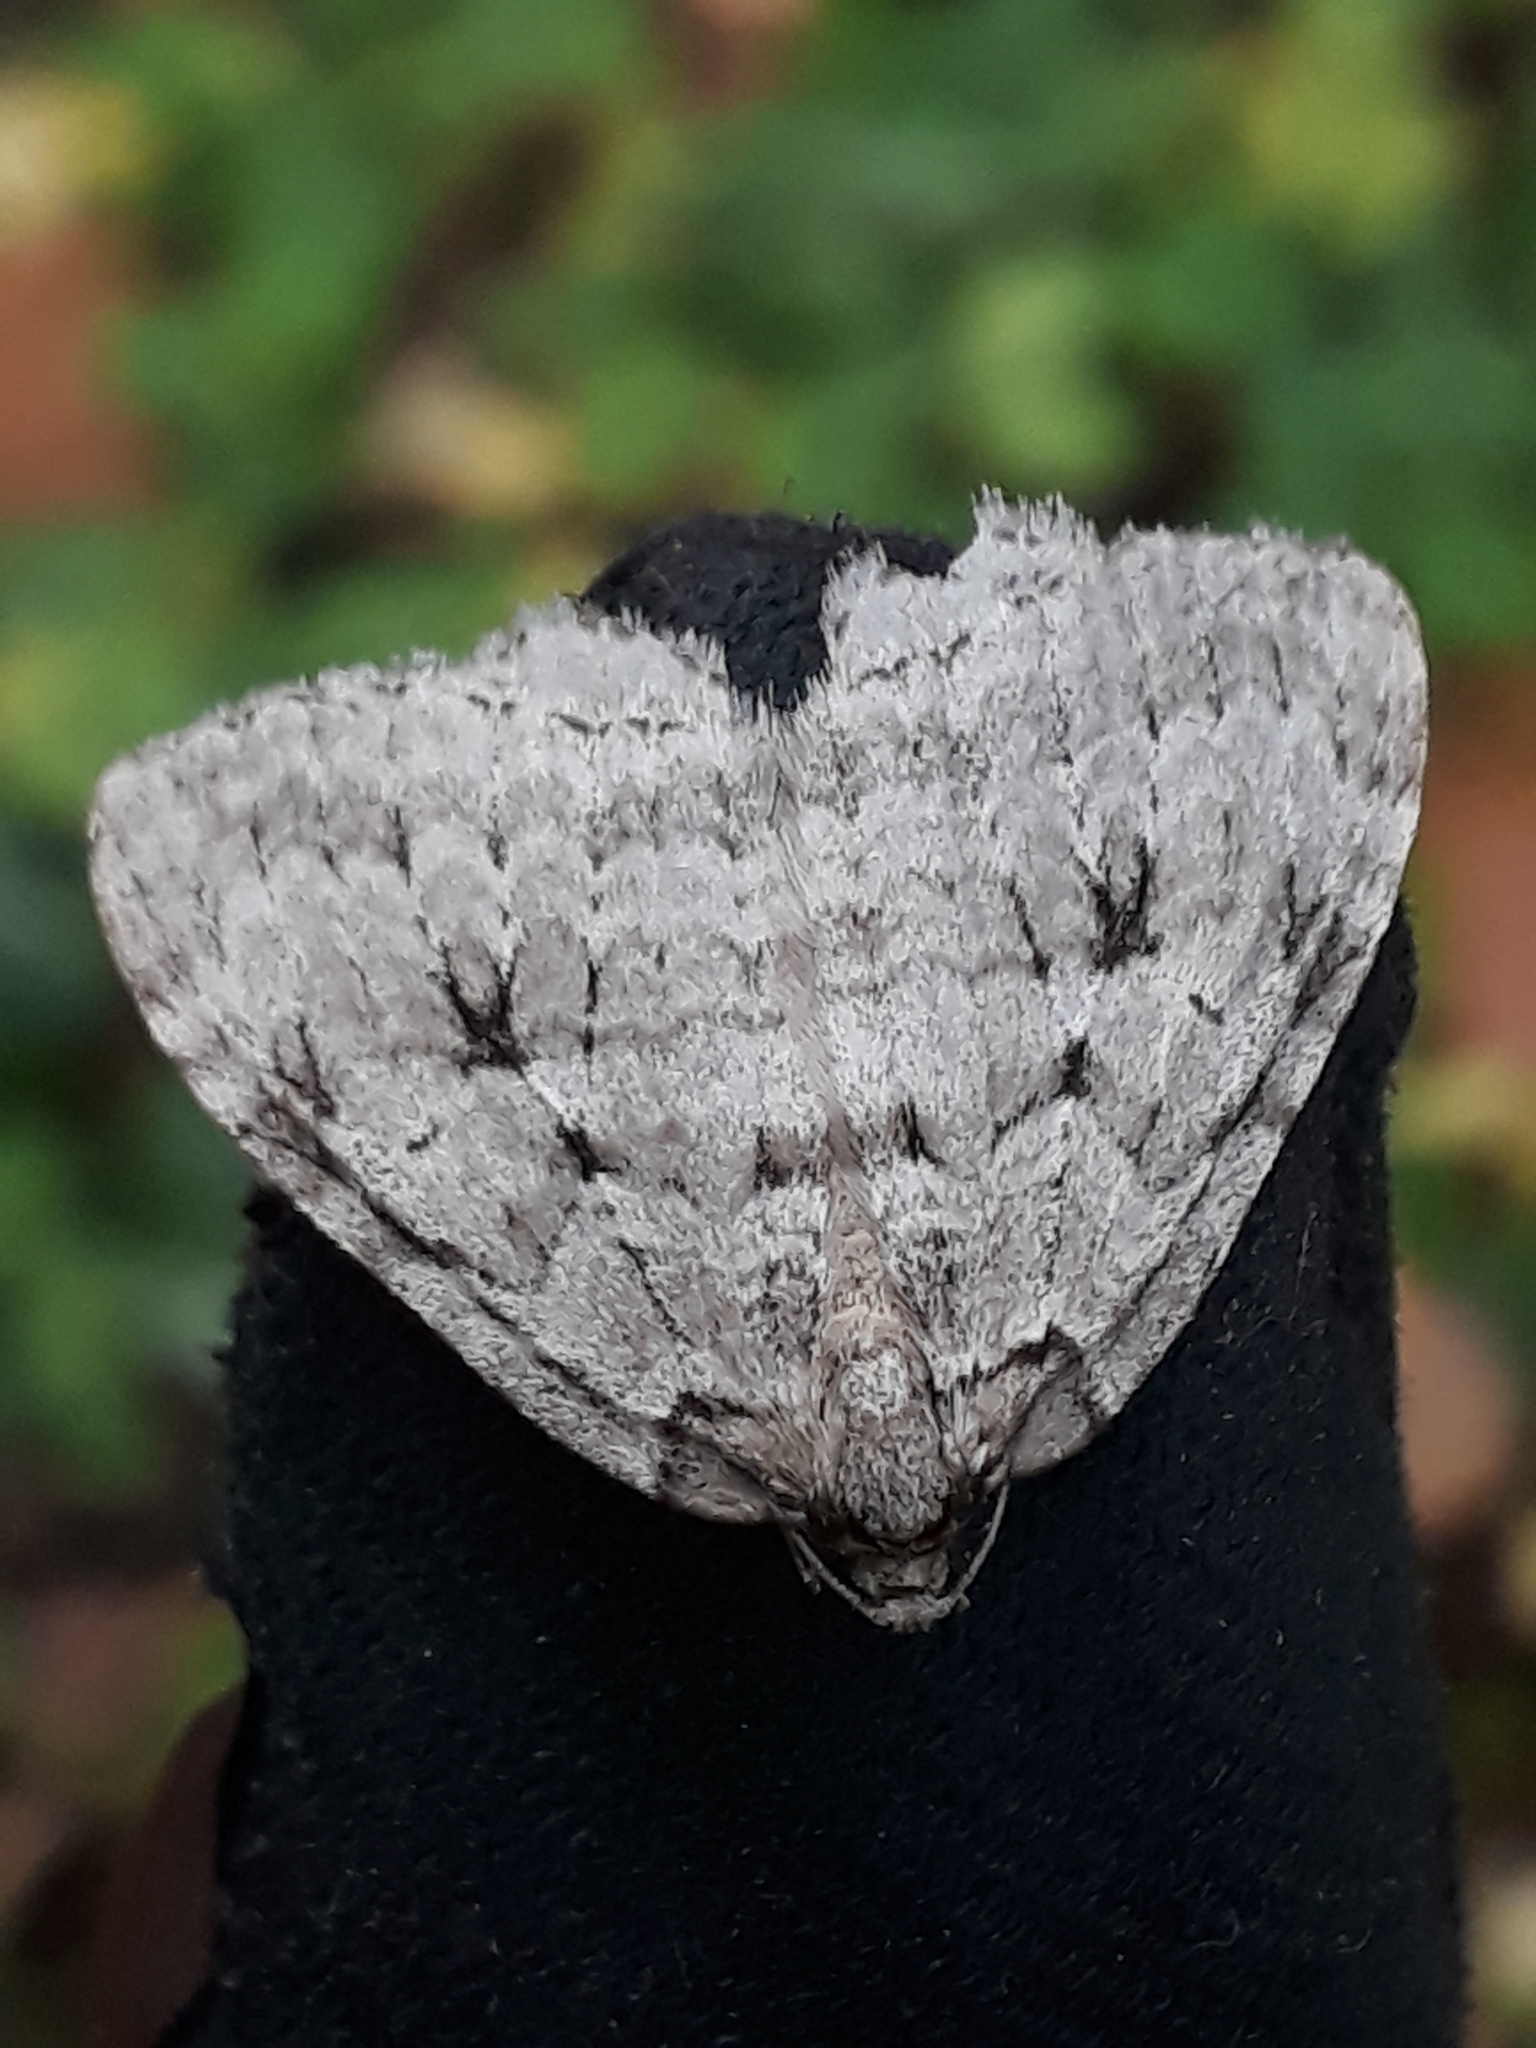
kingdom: Animalia
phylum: Arthropoda
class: Insecta
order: Lepidoptera
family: Geometridae
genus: Epirrita
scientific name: Epirrita autumnata
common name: Autumnal moth
